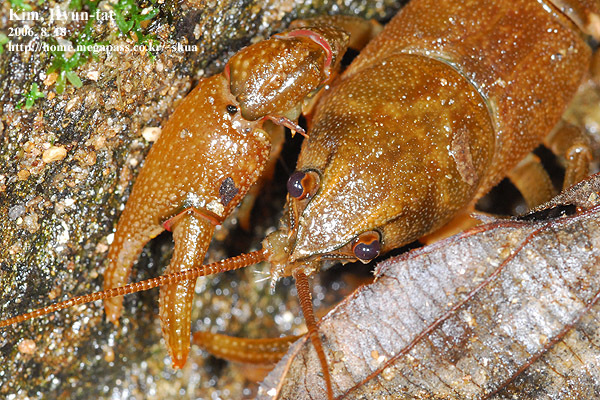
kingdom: Animalia
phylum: Arthropoda
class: Malacostraca
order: Decapoda
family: Cambaroididae
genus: Cambaroides
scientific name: Cambaroides similis
